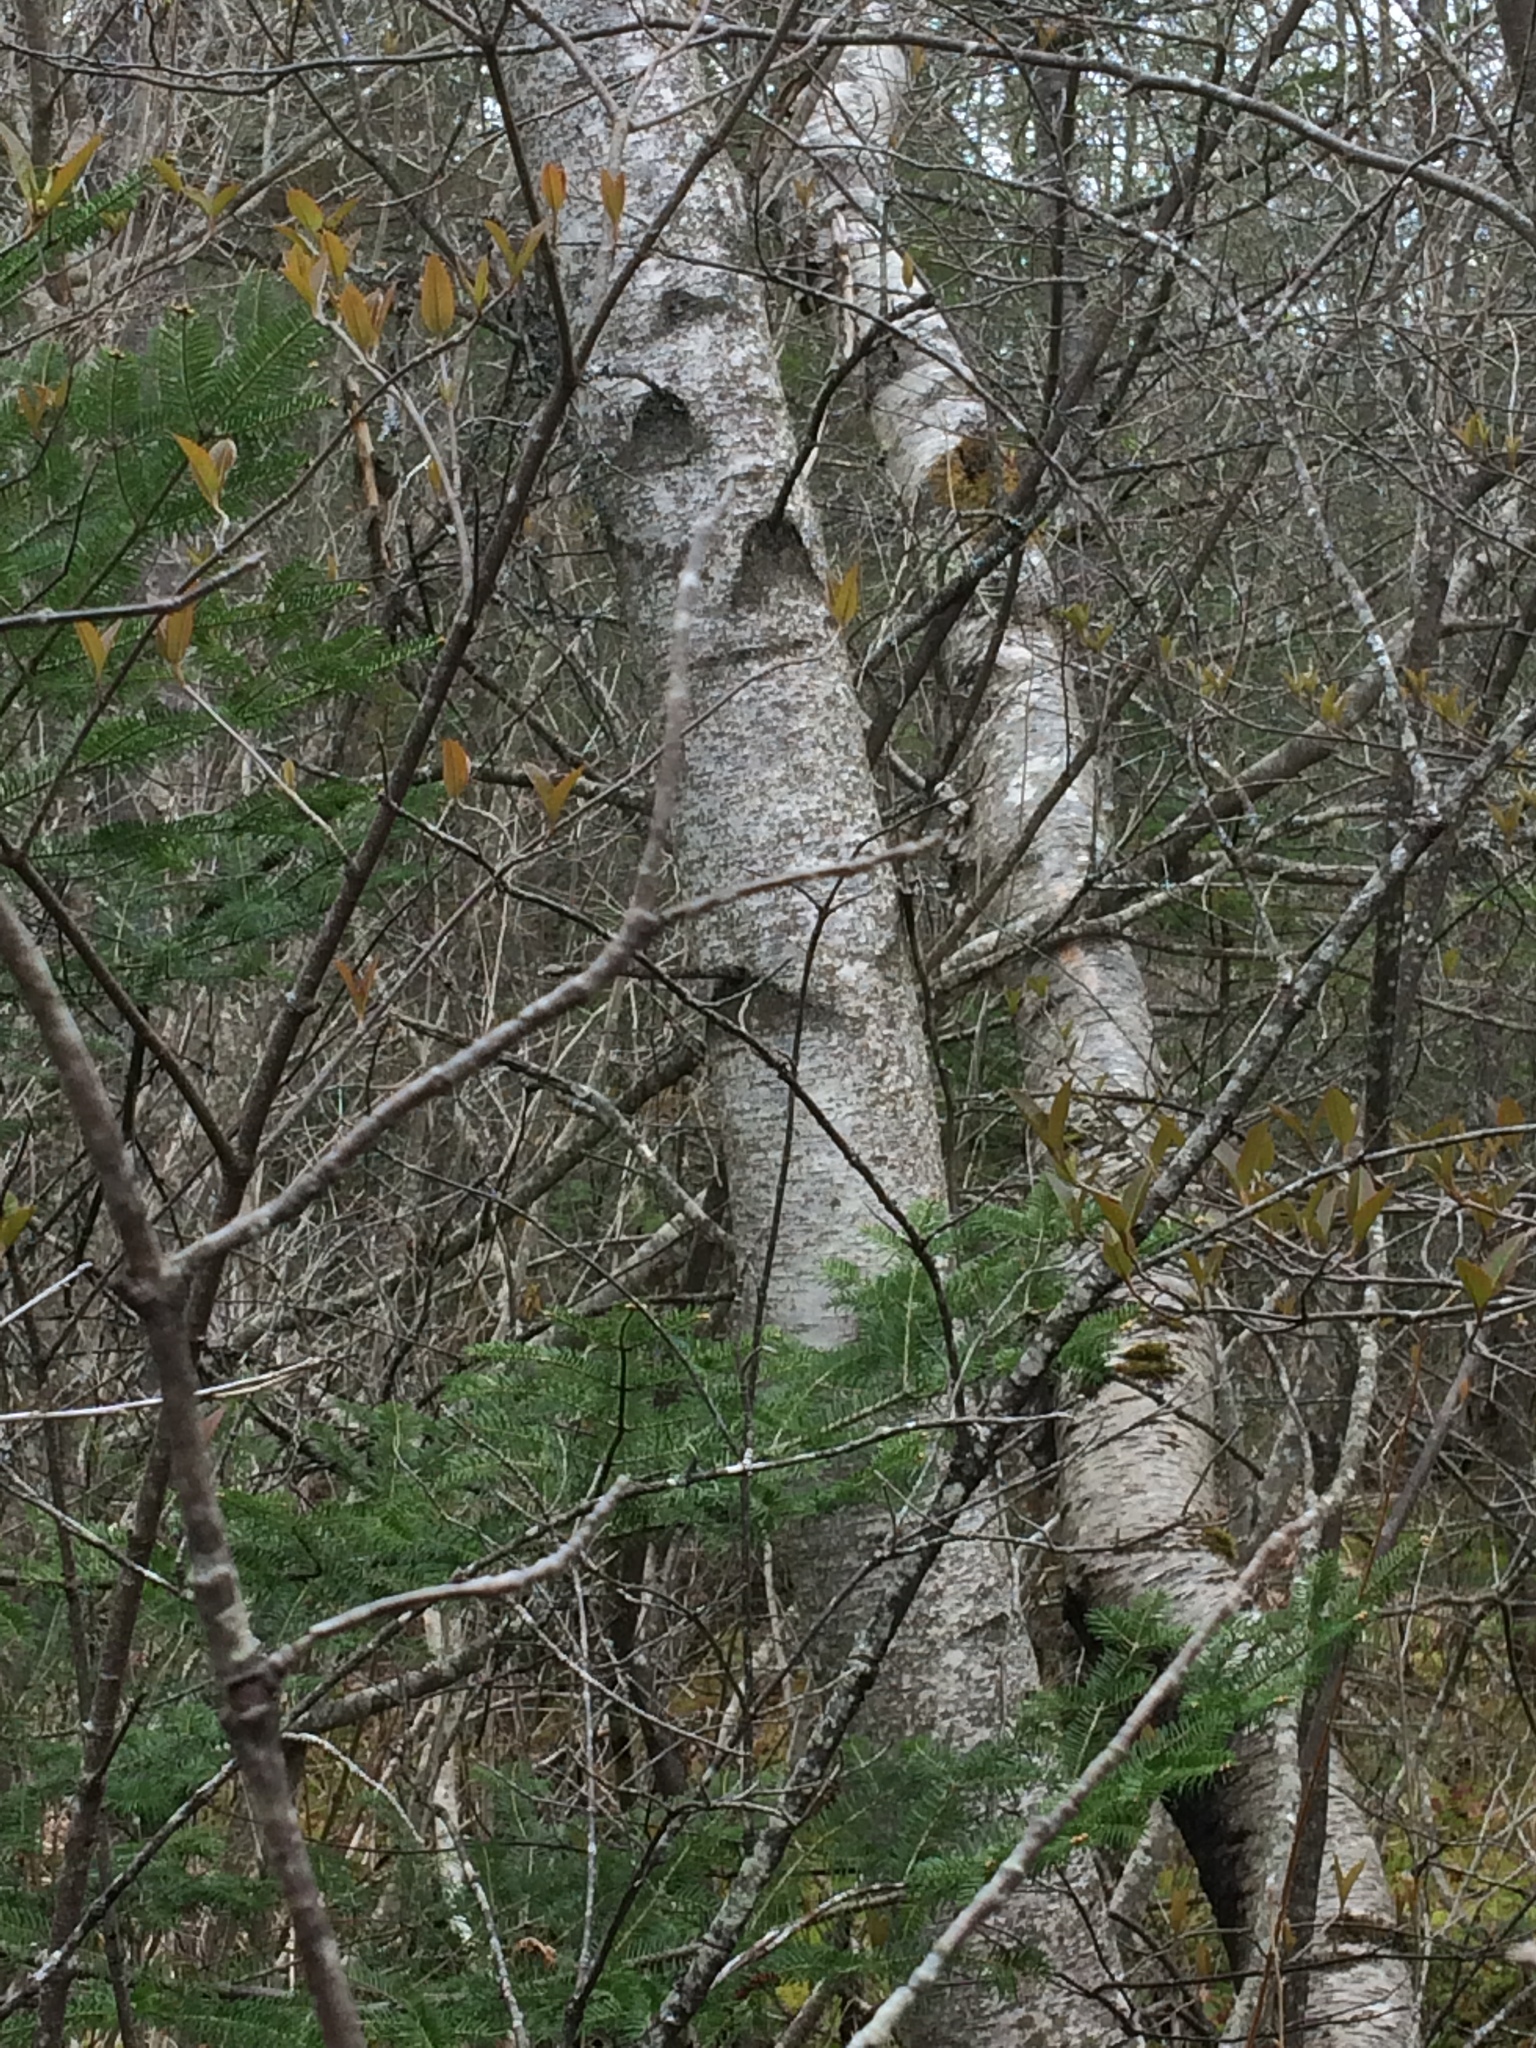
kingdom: Plantae
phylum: Tracheophyta
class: Magnoliopsida
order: Fagales
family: Betulaceae
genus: Betula
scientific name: Betula populifolia
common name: Fire birch
